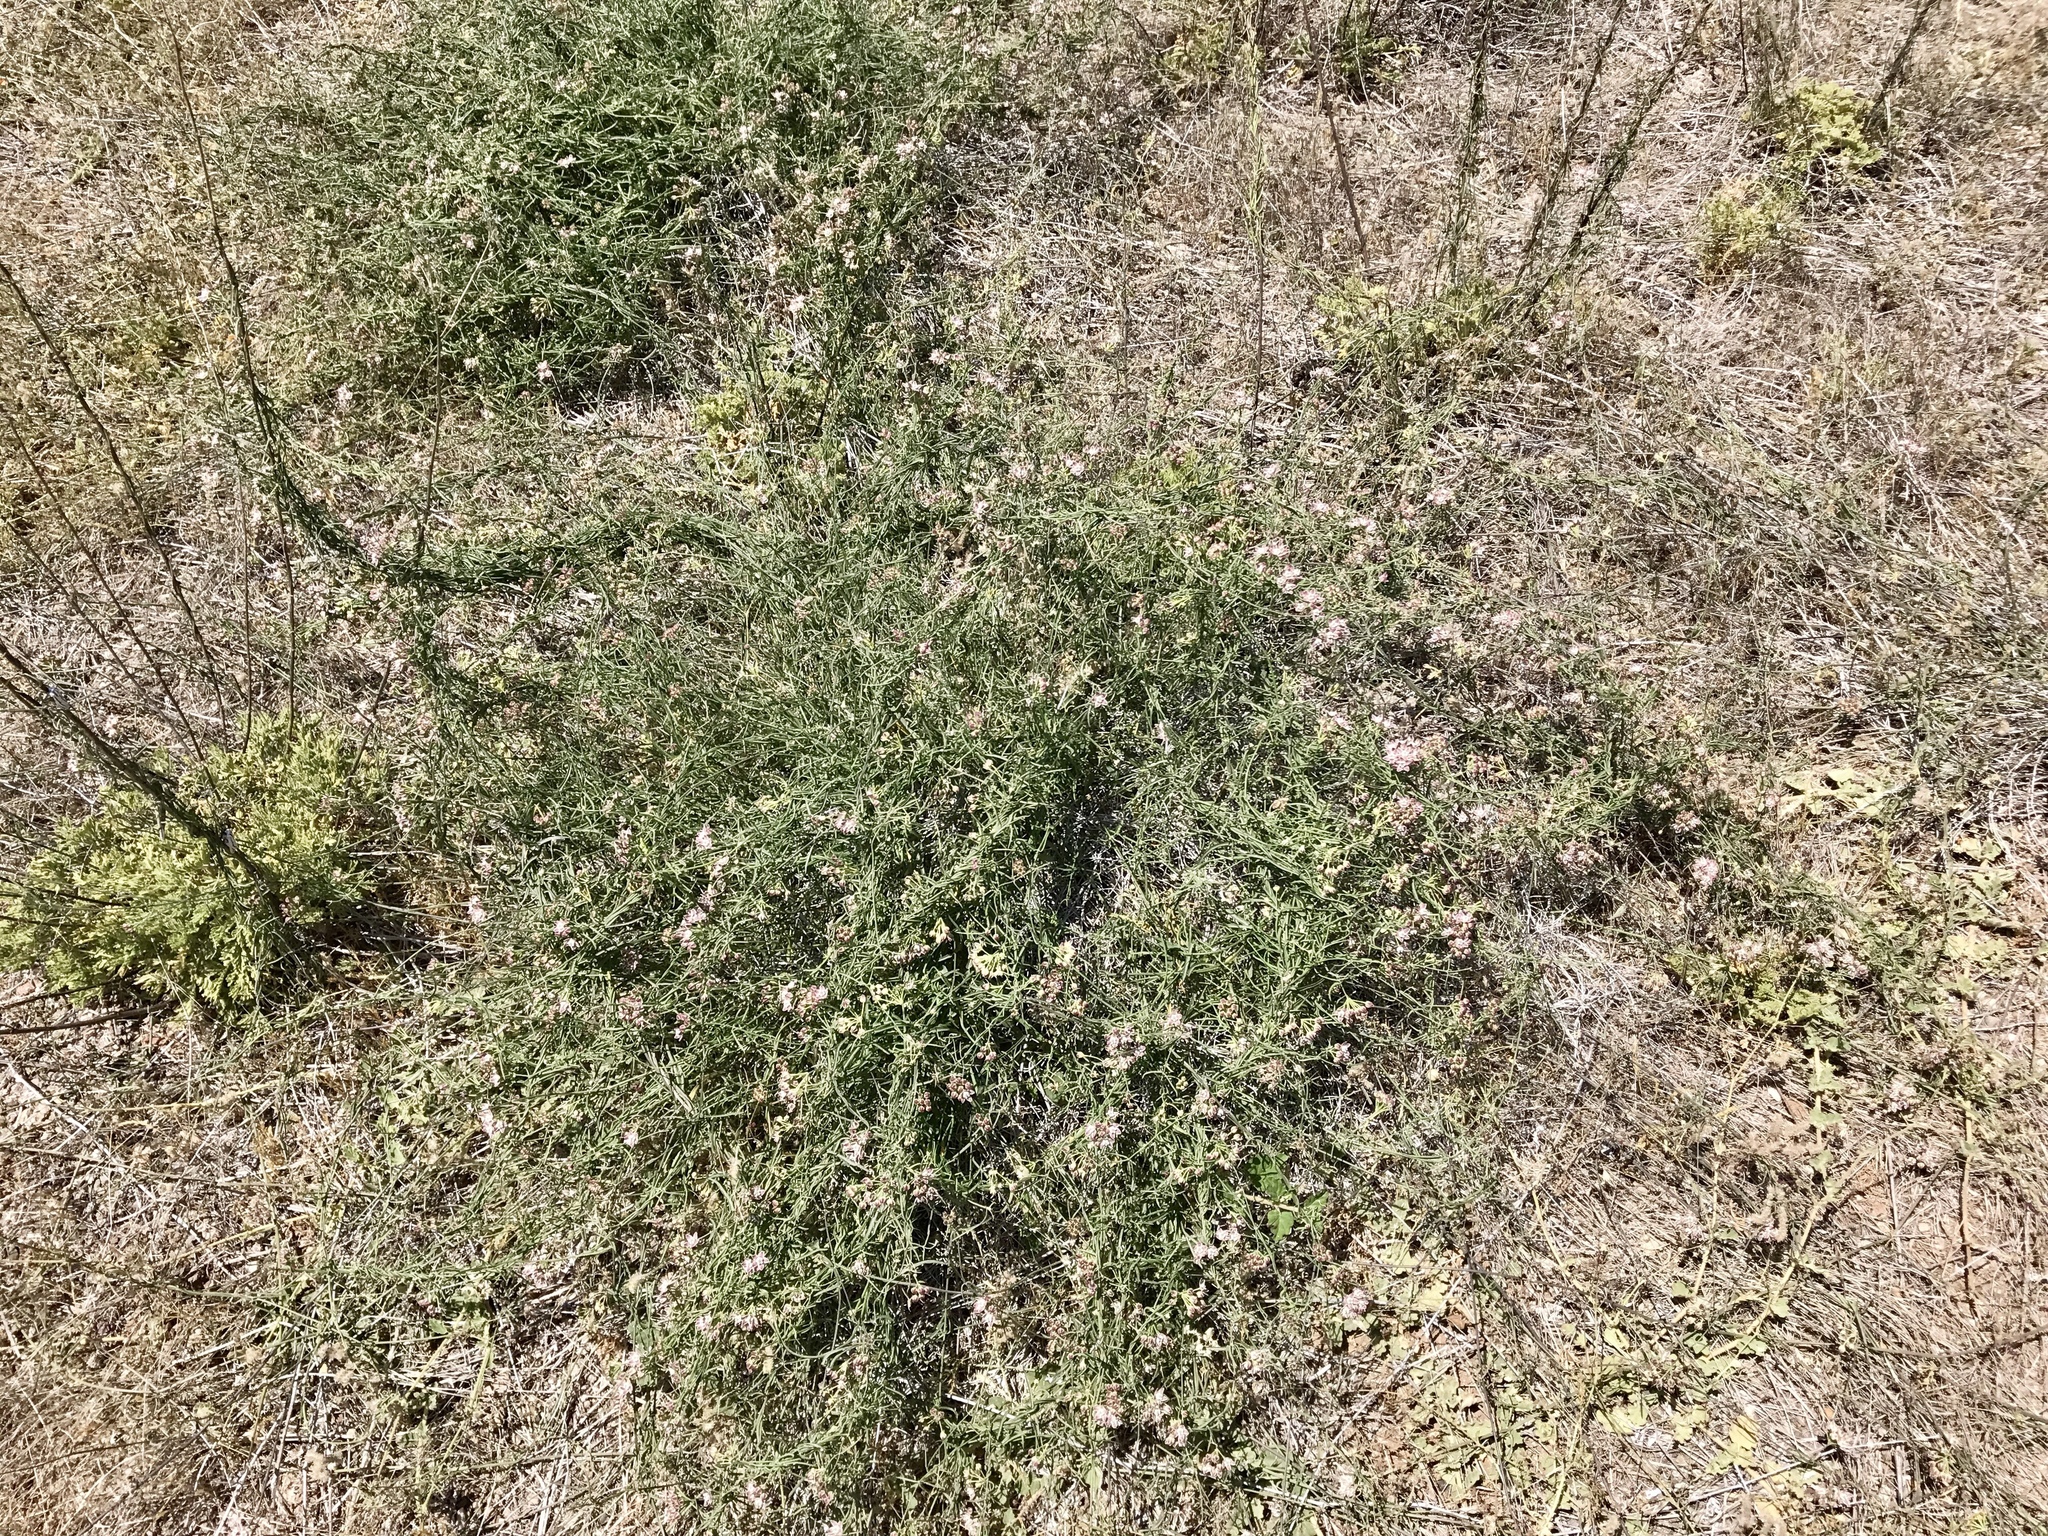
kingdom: Plantae
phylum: Tracheophyta
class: Magnoliopsida
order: Gentianales
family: Apocynaceae
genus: Funastrum
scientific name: Funastrum heterophyllum
